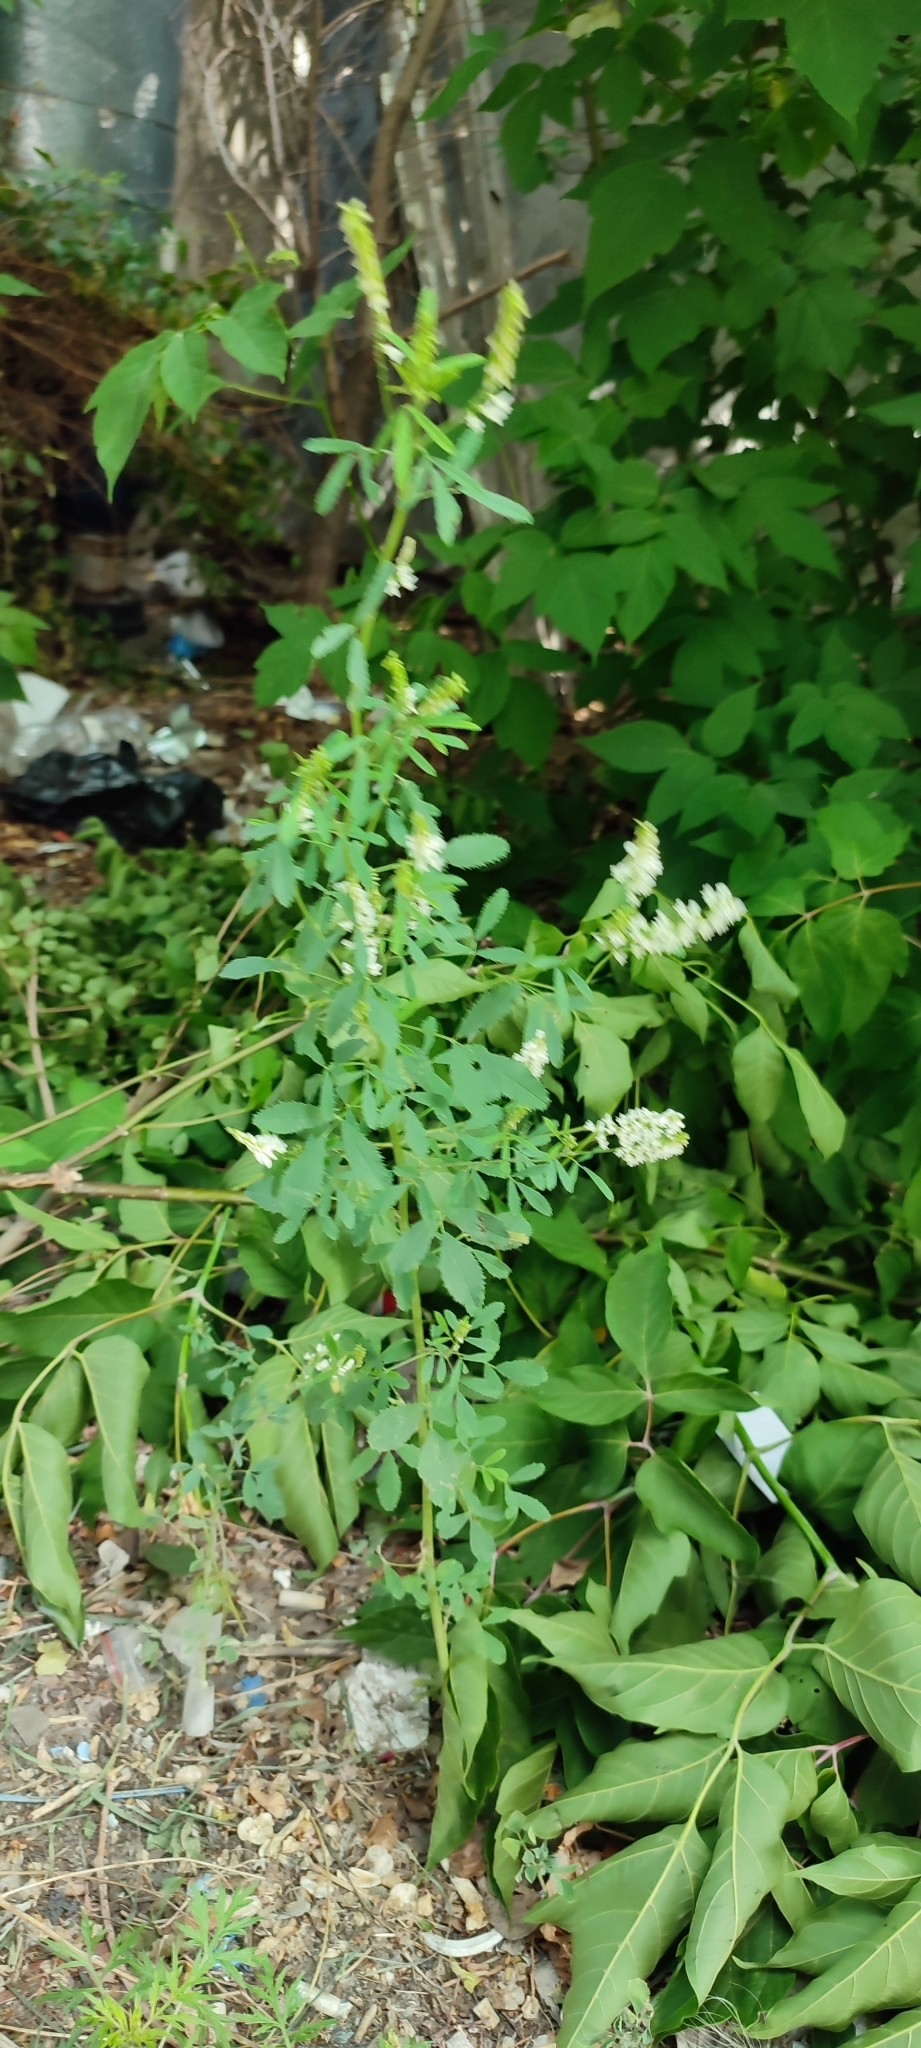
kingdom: Plantae
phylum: Tracheophyta
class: Magnoliopsida
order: Fabales
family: Fabaceae
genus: Melilotus
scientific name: Melilotus albus
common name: White melilot
